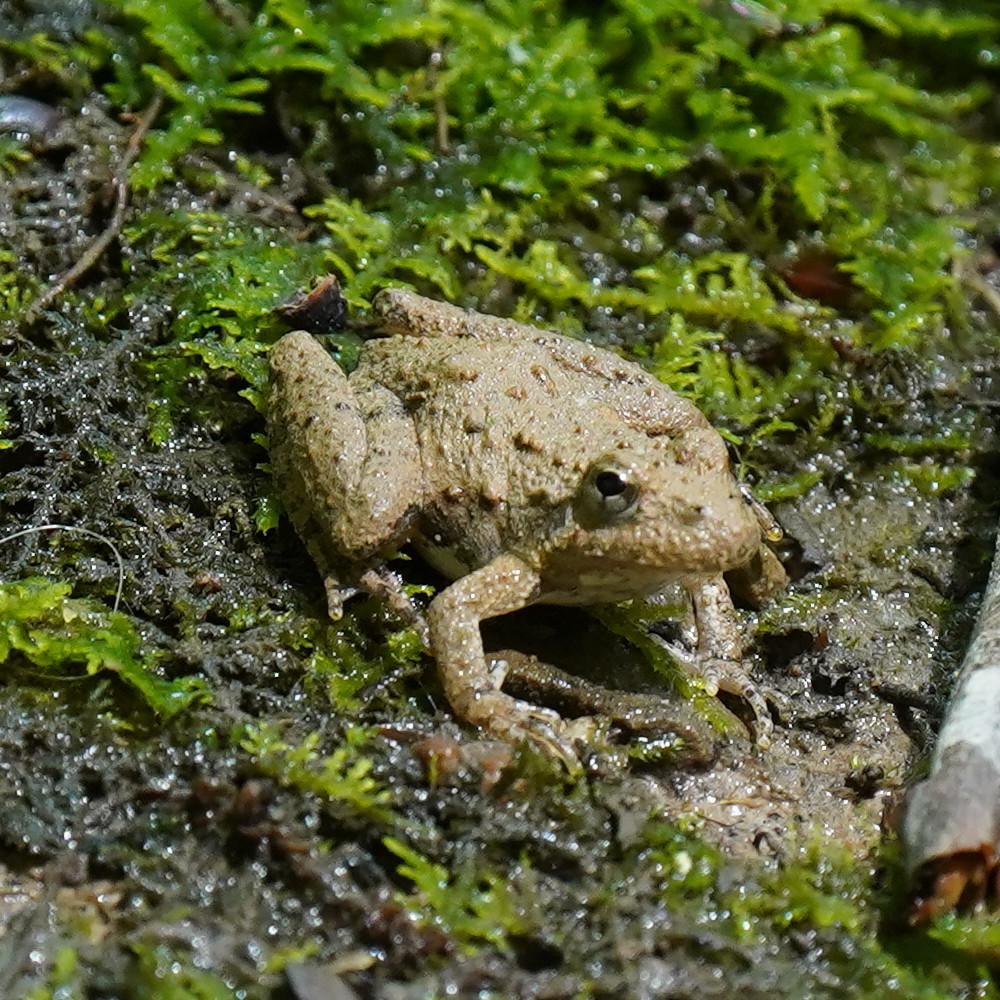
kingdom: Animalia
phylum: Chordata
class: Amphibia
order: Anura
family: Hylidae
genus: Acris
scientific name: Acris blanchardi
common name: Blanchard's cricket frog
